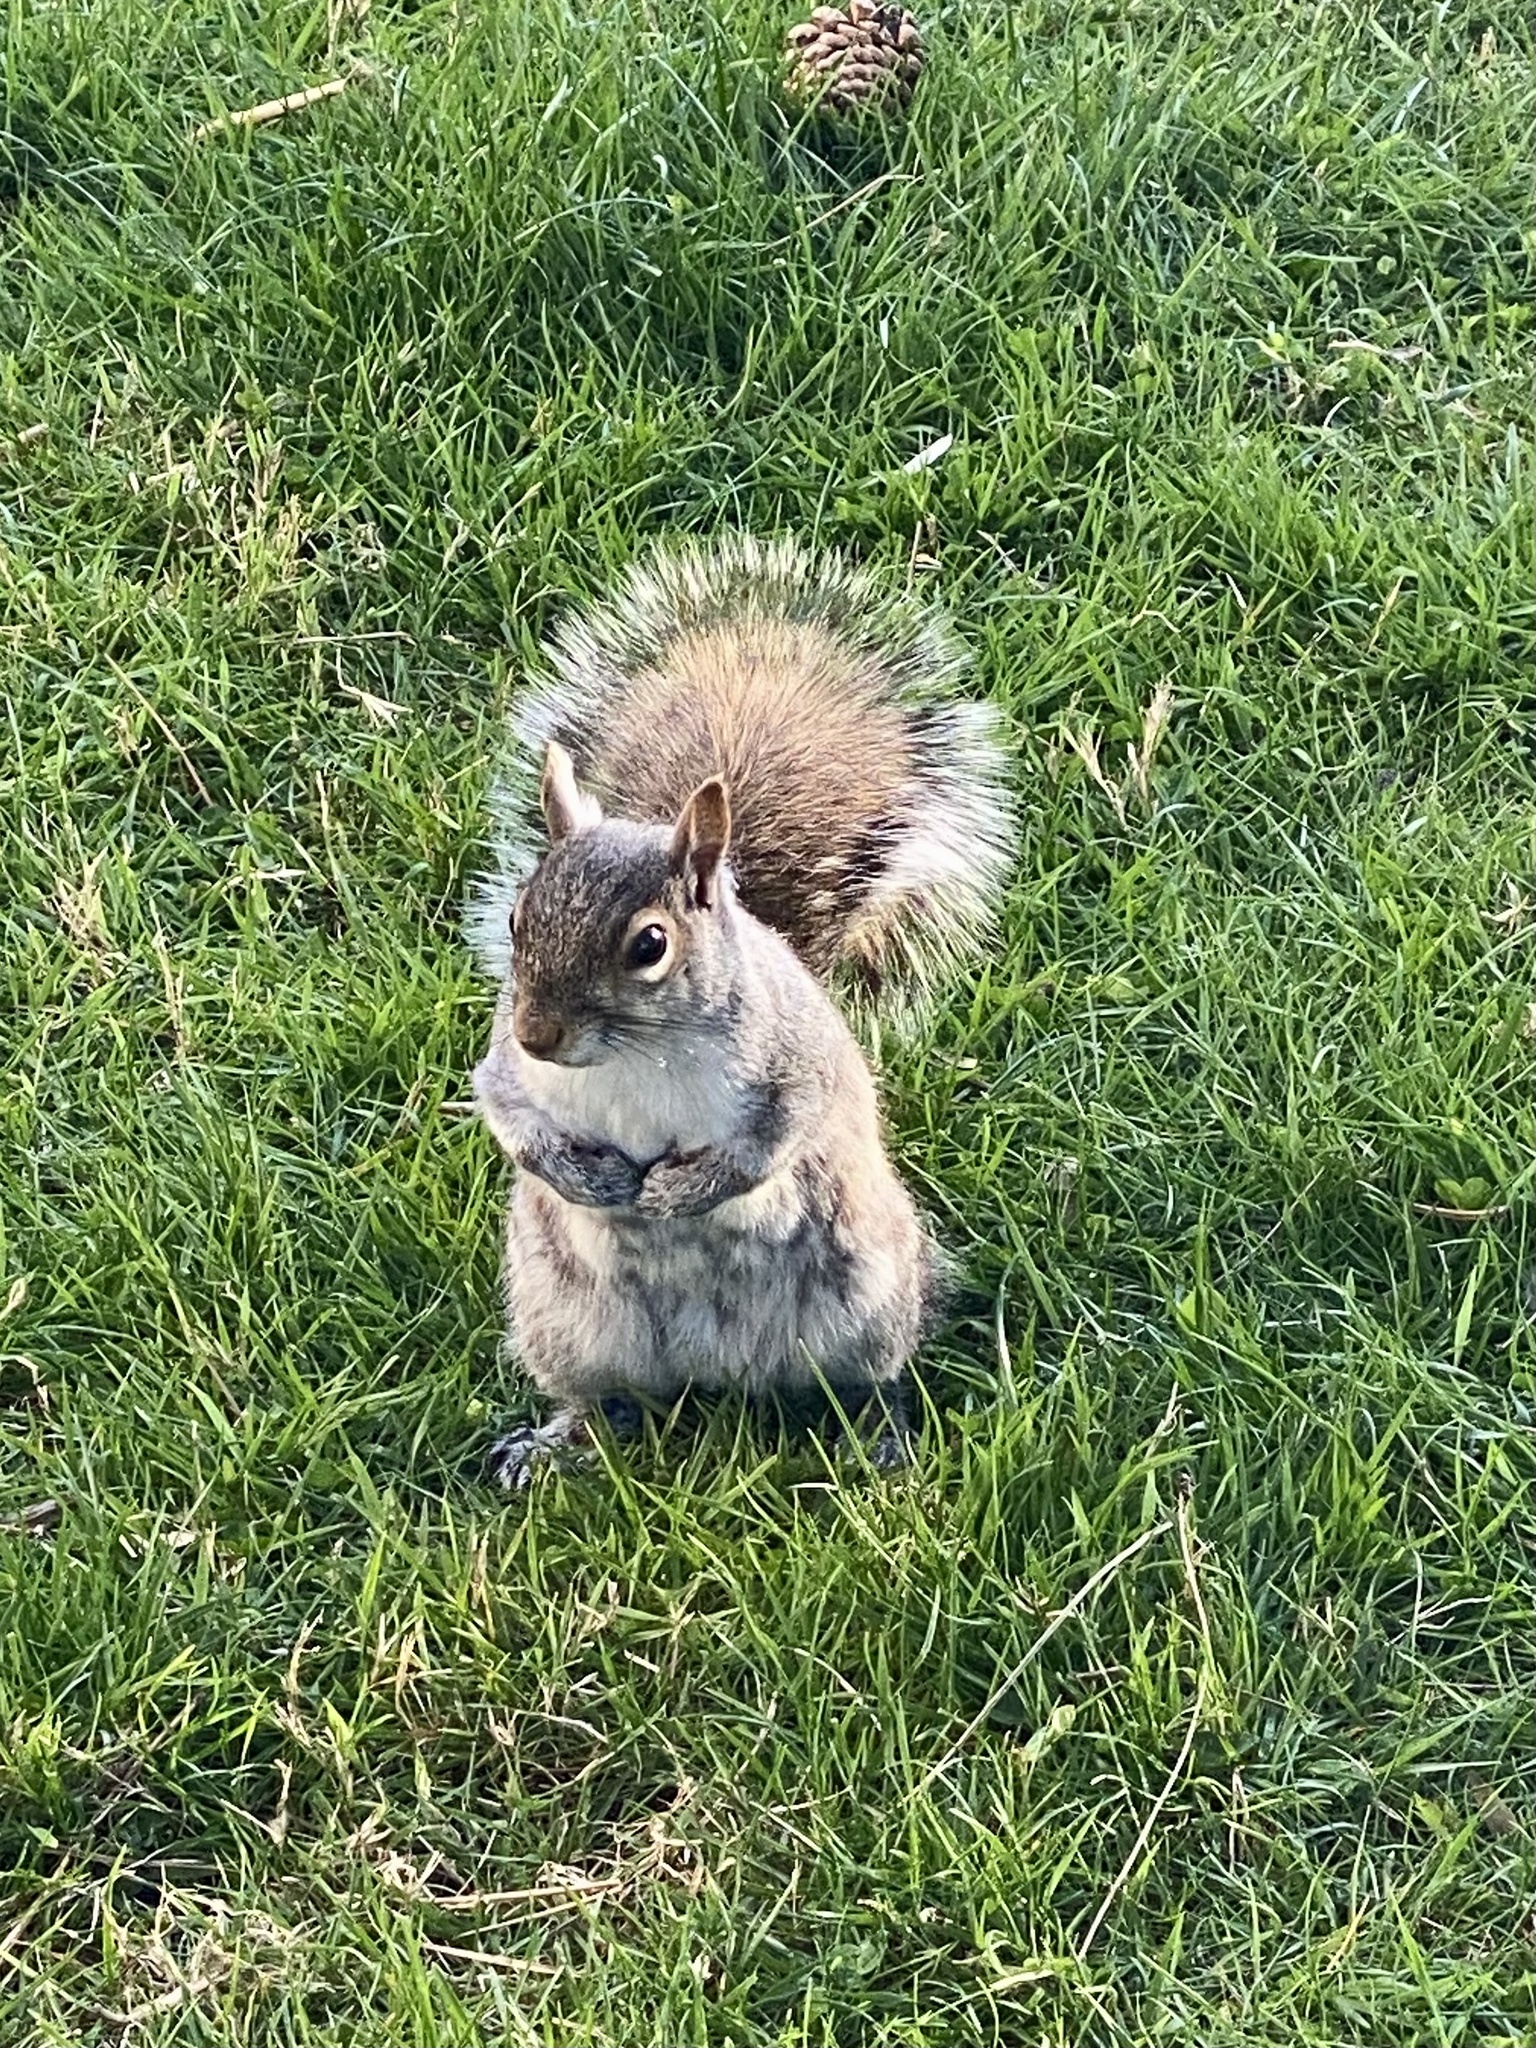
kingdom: Animalia
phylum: Chordata
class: Mammalia
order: Rodentia
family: Sciuridae
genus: Sciurus
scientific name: Sciurus carolinensis
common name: Eastern gray squirrel
